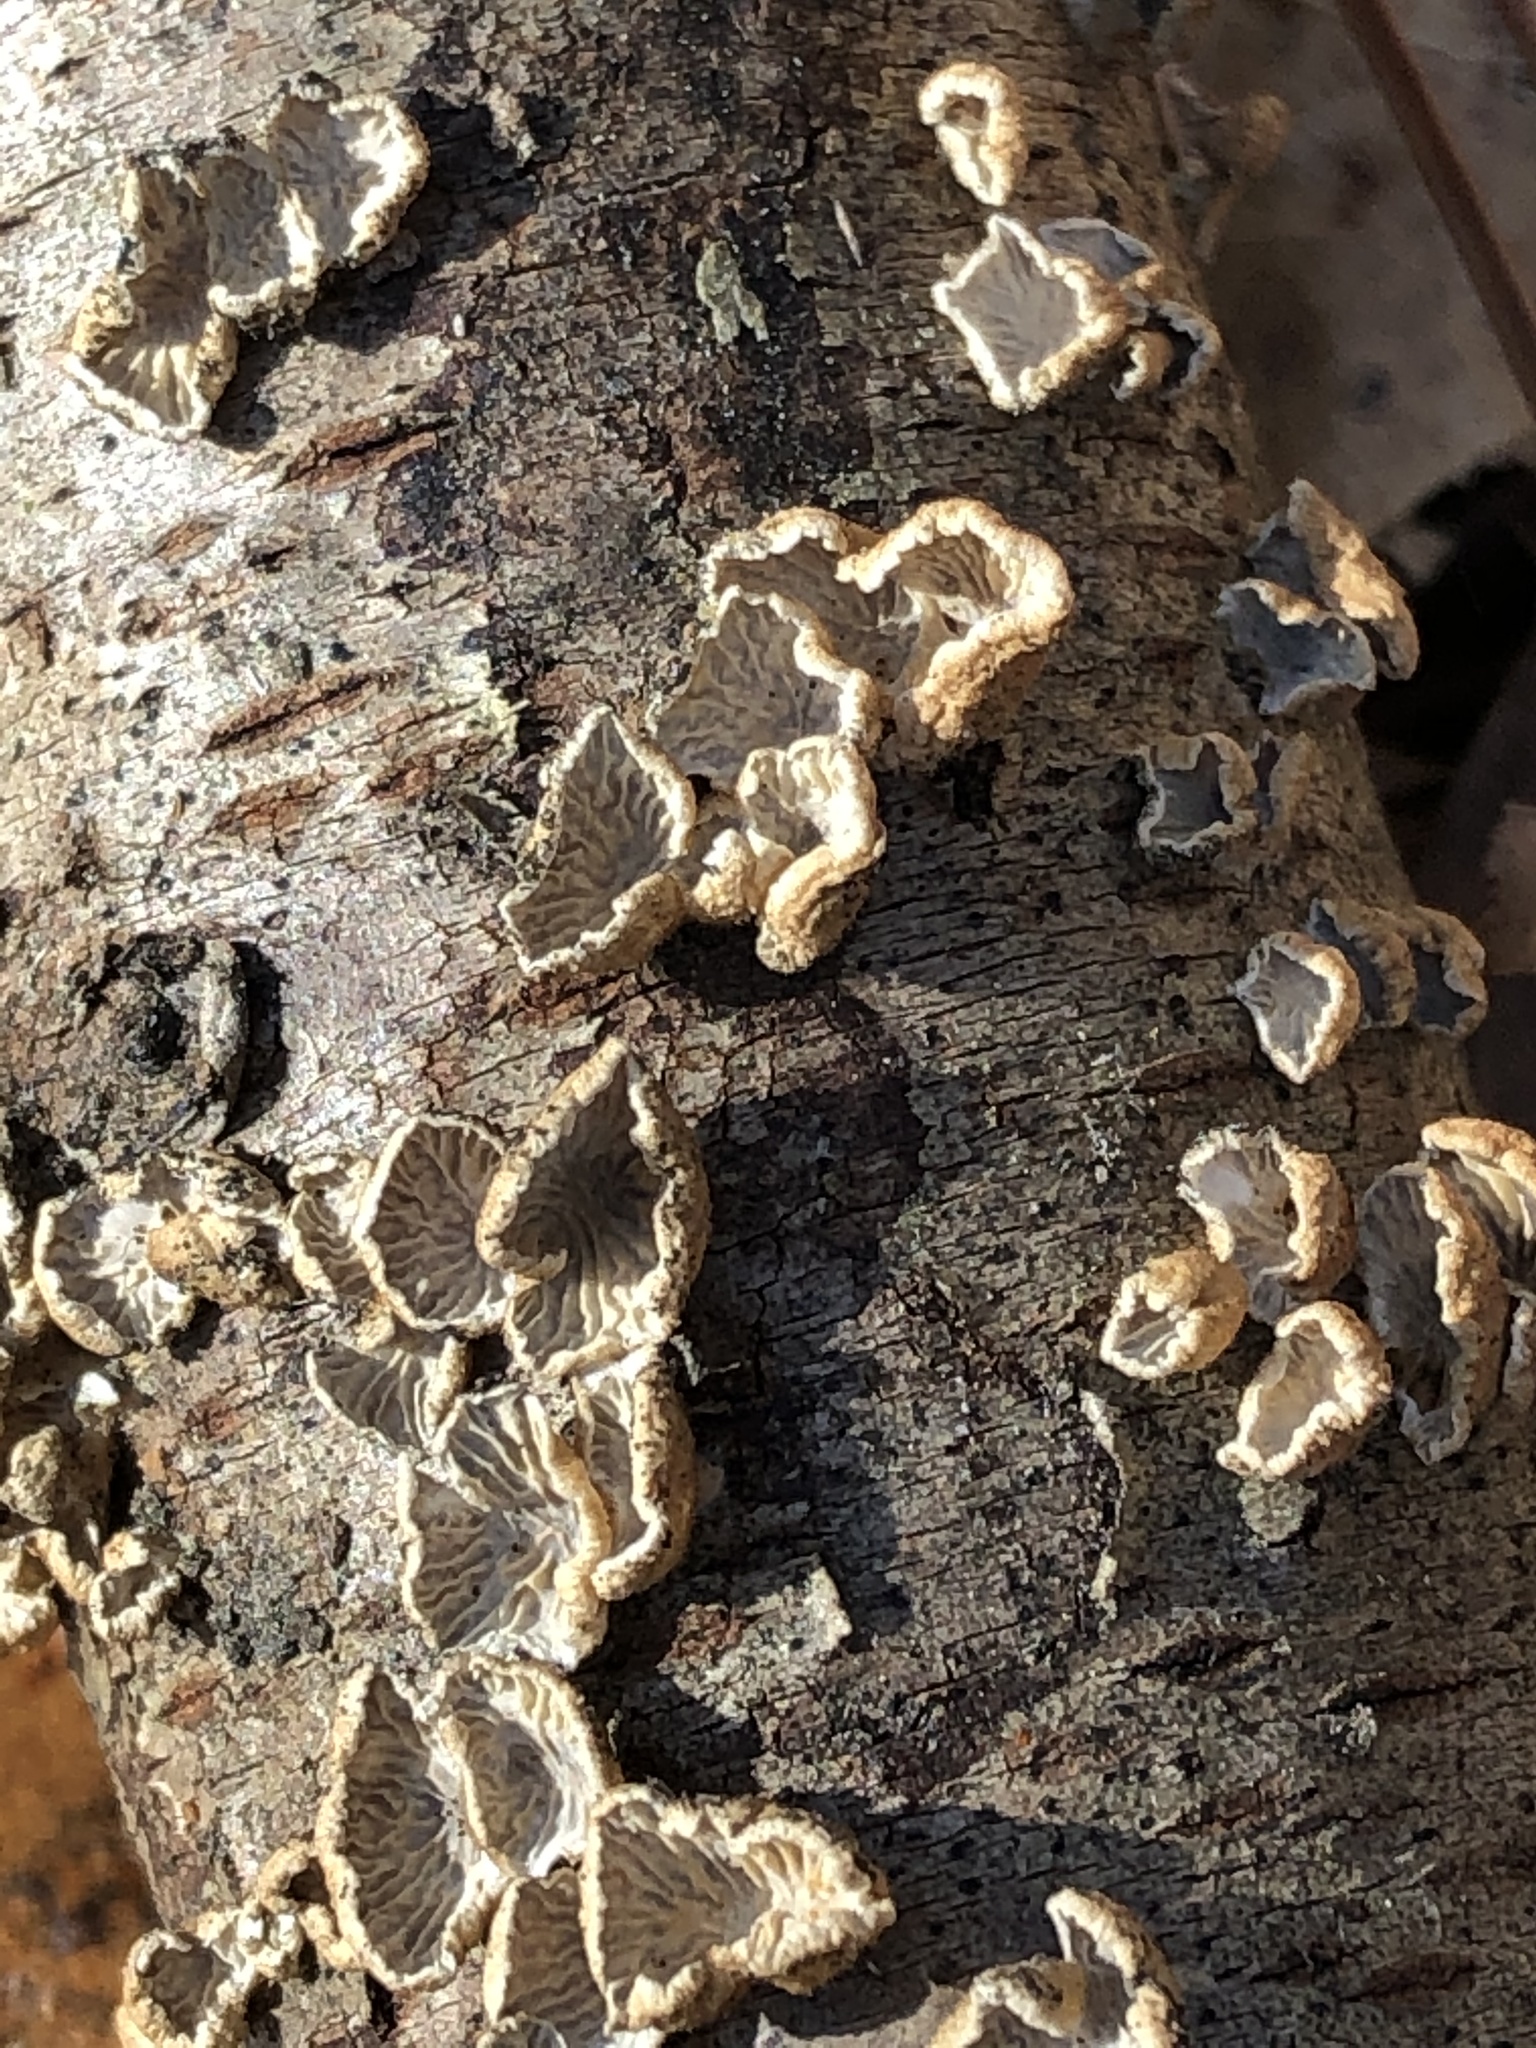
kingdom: Fungi
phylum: Basidiomycota
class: Agaricomycetes
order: Amylocorticiales
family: Amylocorticiaceae
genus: Plicaturopsis
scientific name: Plicaturopsis crispa
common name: Crimped gill
